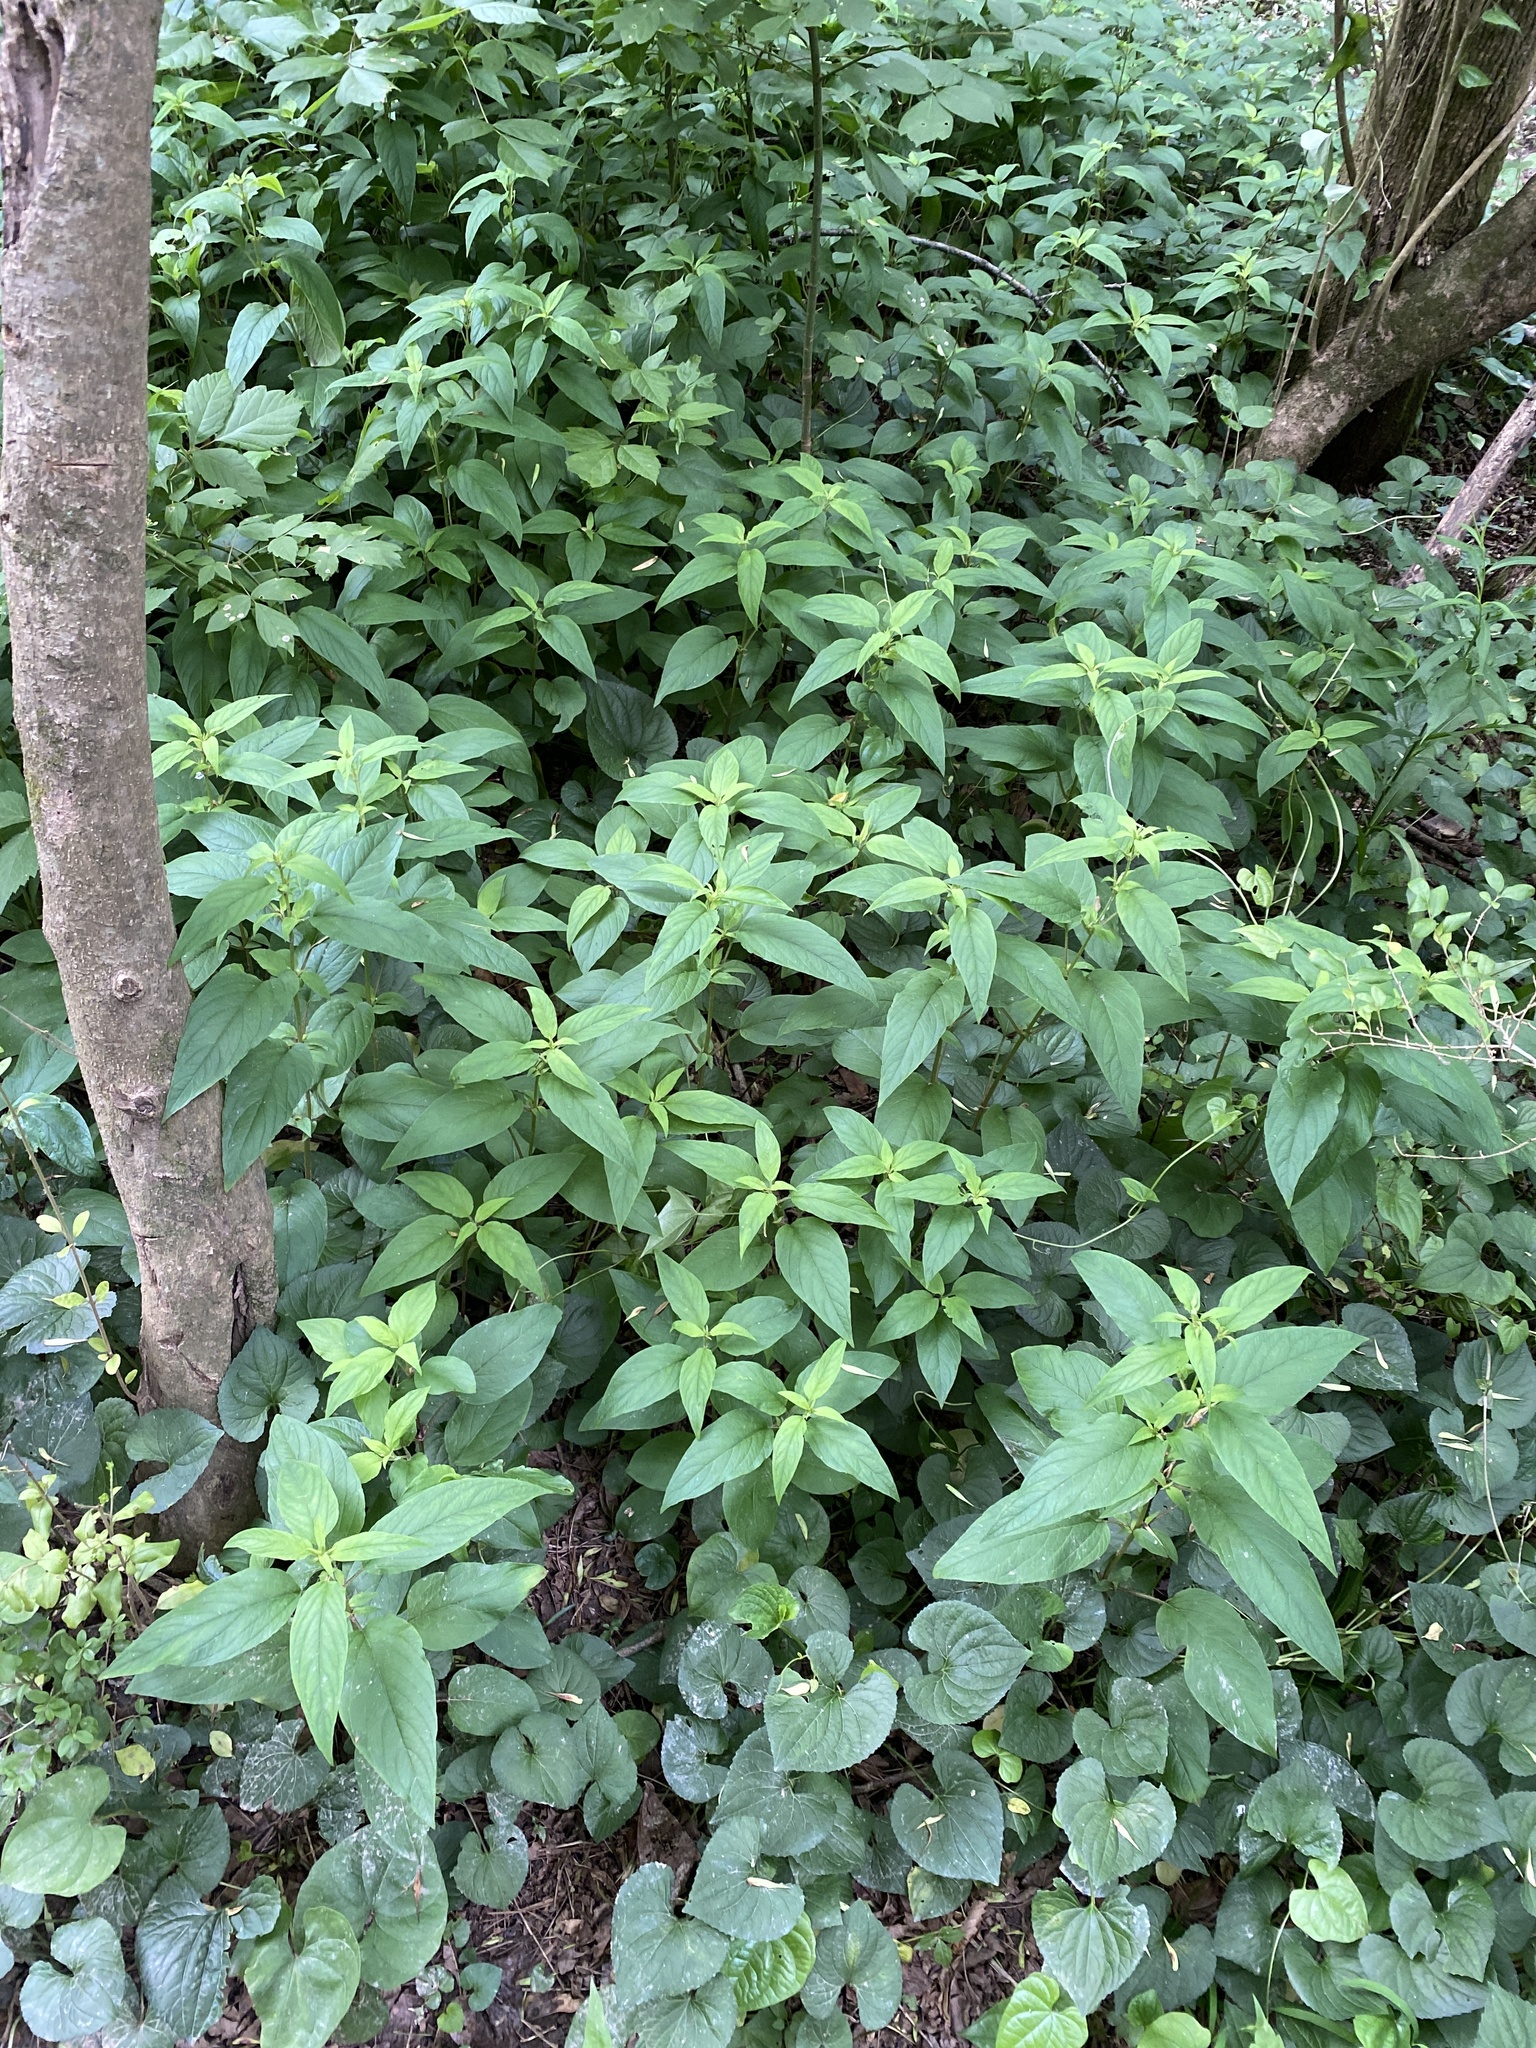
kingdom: Plantae
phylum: Tracheophyta
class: Magnoliopsida
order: Ericales
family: Primulaceae
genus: Lysimachia
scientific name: Lysimachia ciliata
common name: Fringed loosestrife
